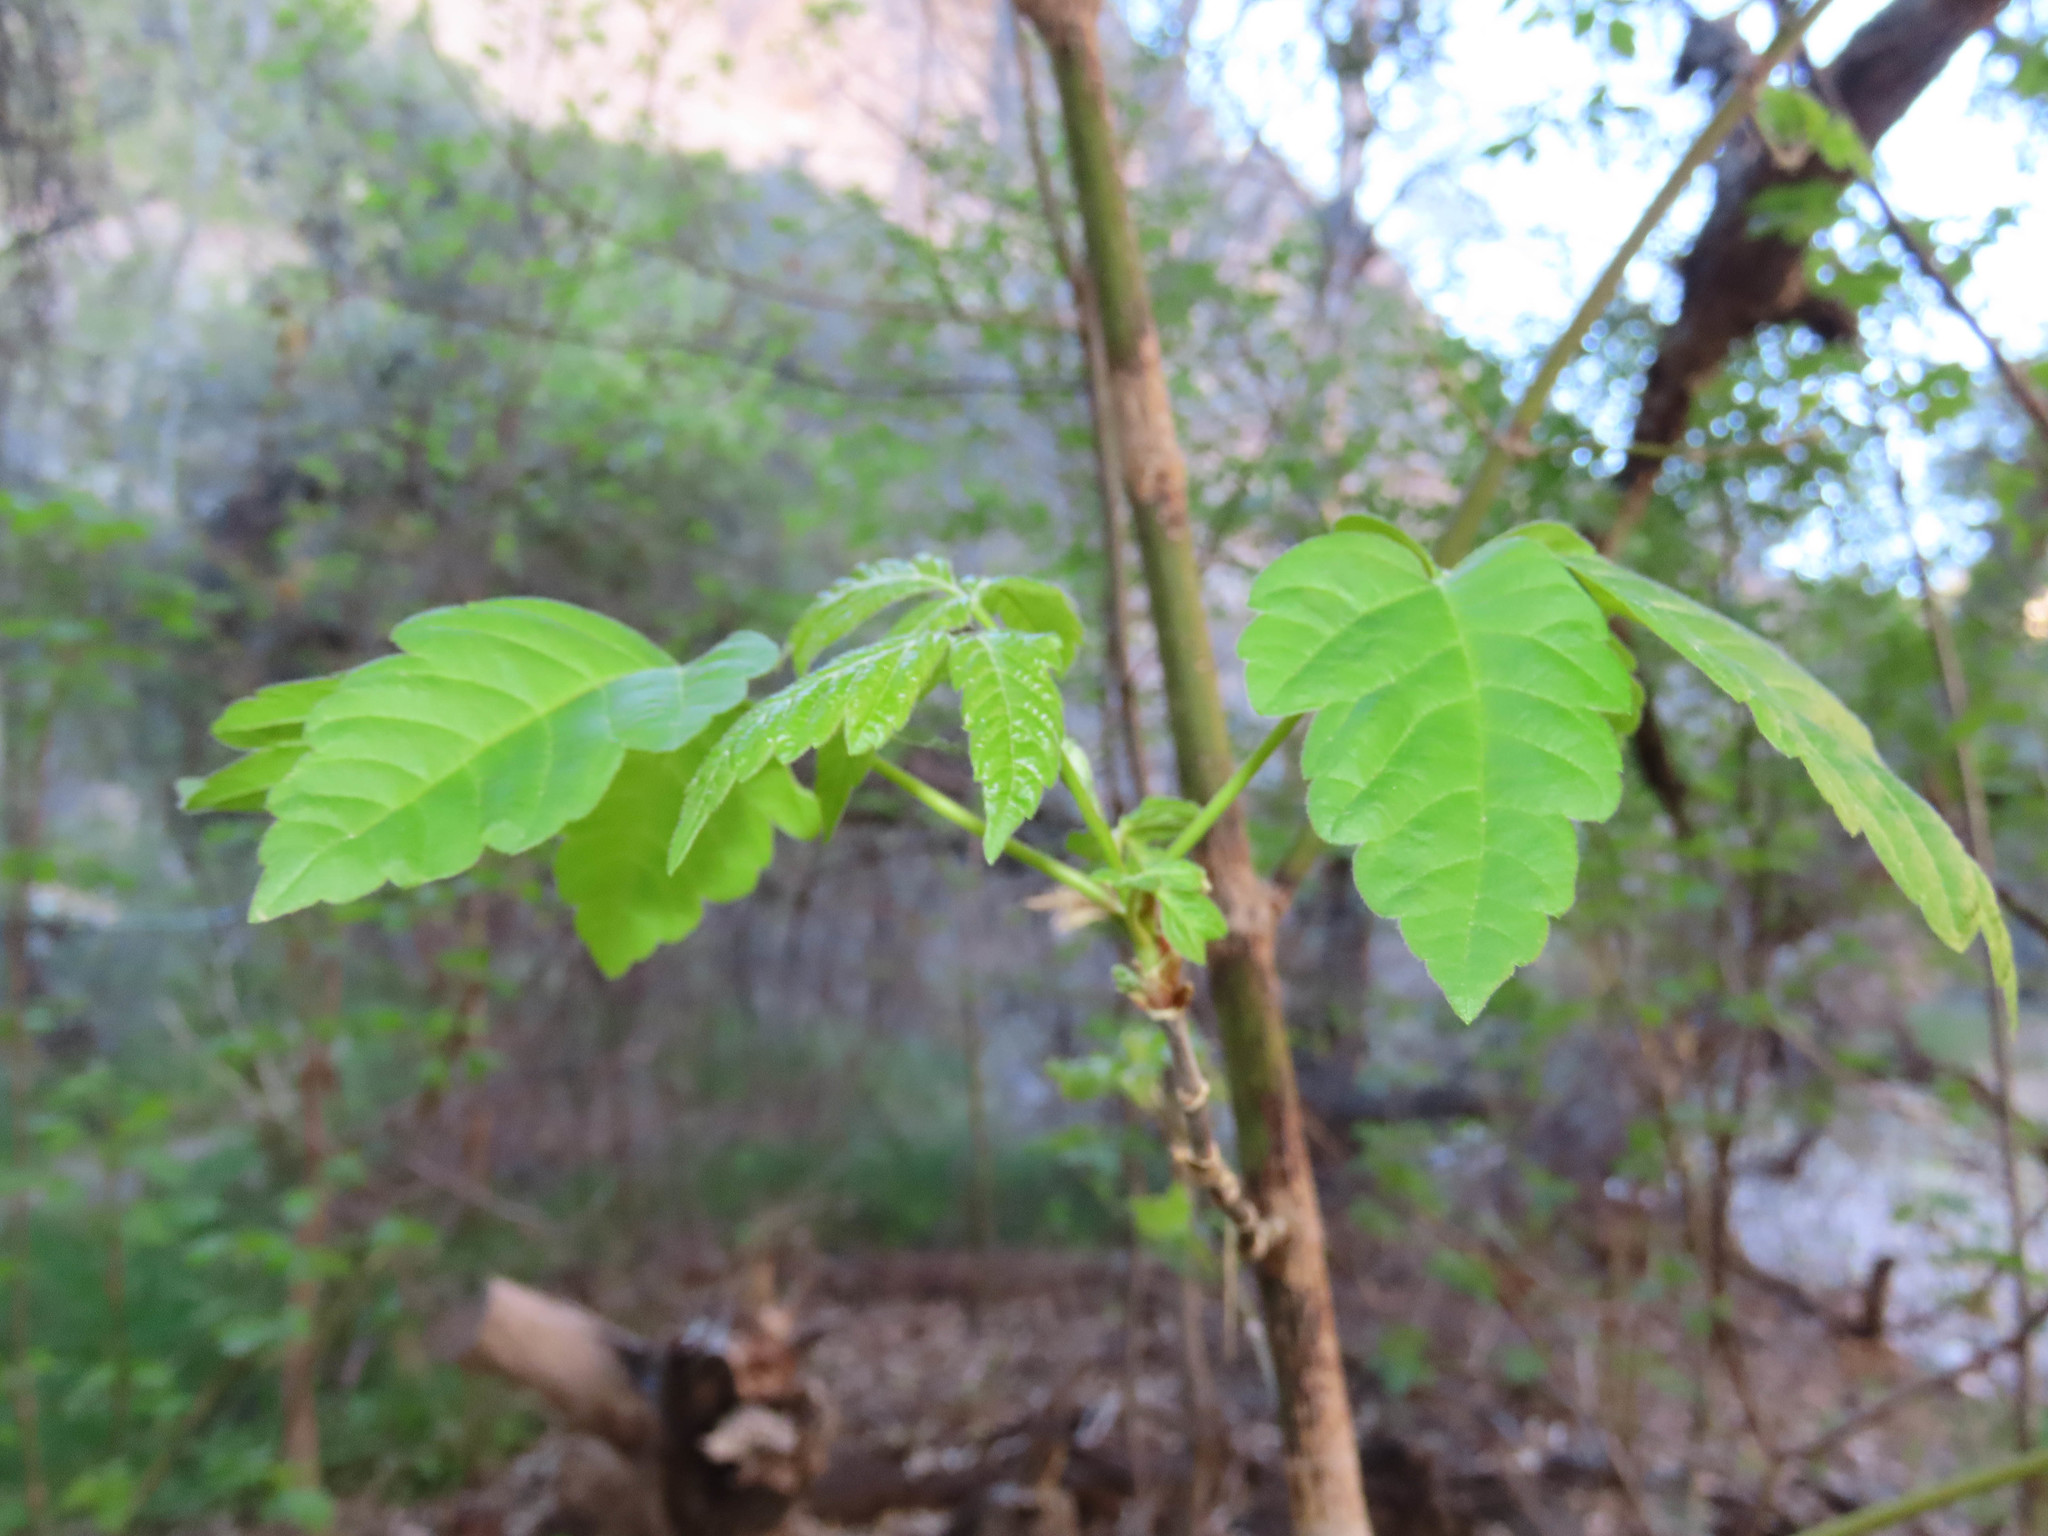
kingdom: Plantae
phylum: Tracheophyta
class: Magnoliopsida
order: Sapindales
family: Sapindaceae
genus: Acer
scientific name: Acer negundo
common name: Ashleaf maple
